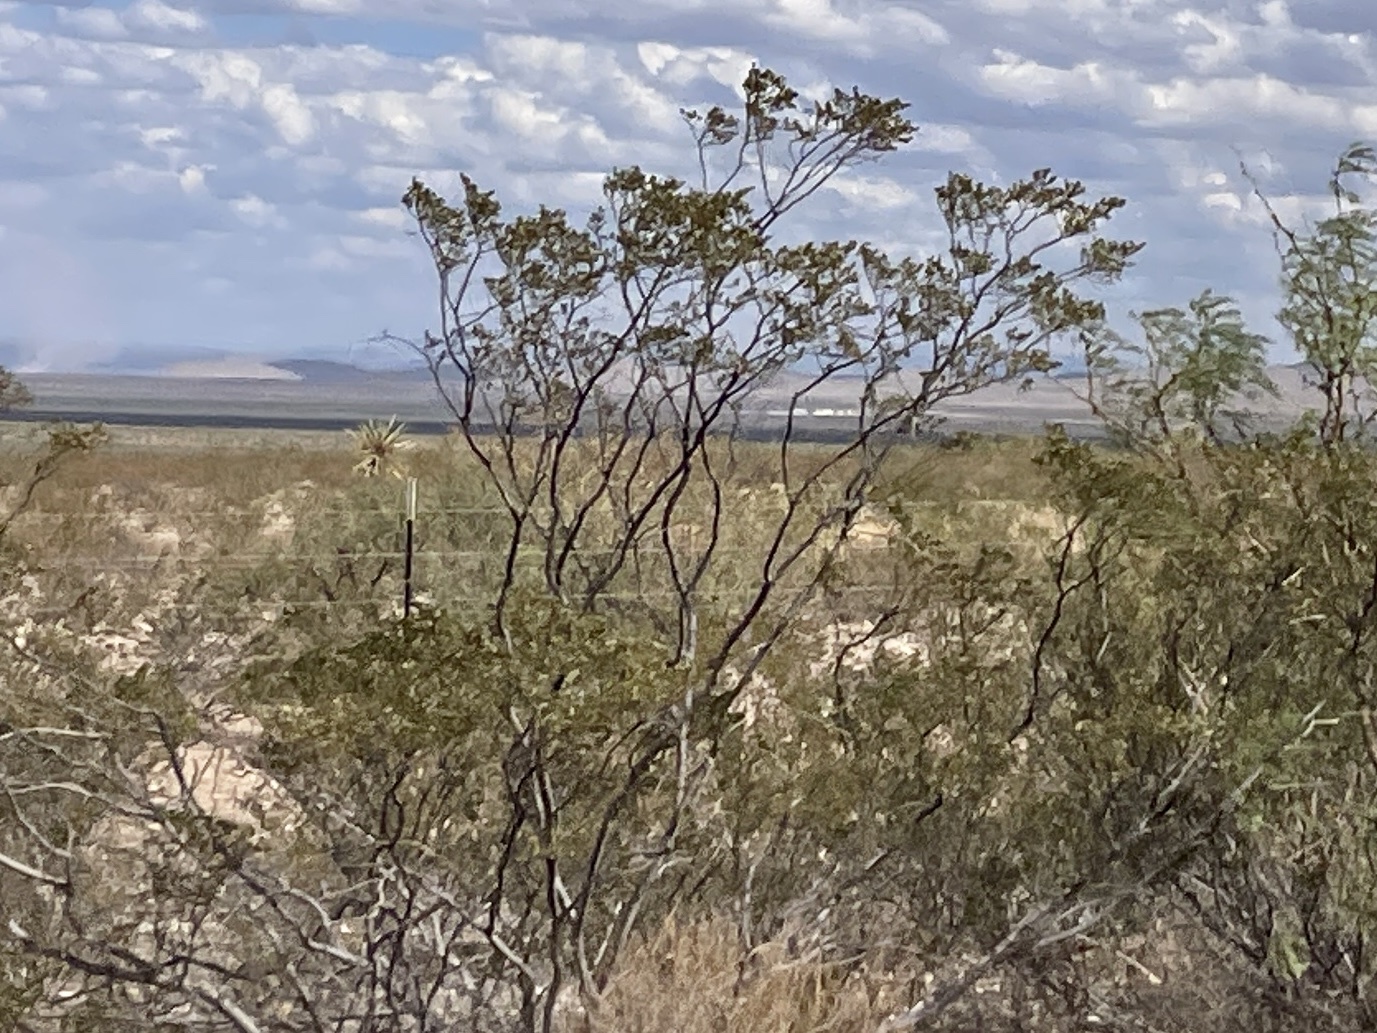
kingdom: Plantae
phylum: Tracheophyta
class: Magnoliopsida
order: Zygophyllales
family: Zygophyllaceae
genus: Larrea
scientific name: Larrea tridentata
